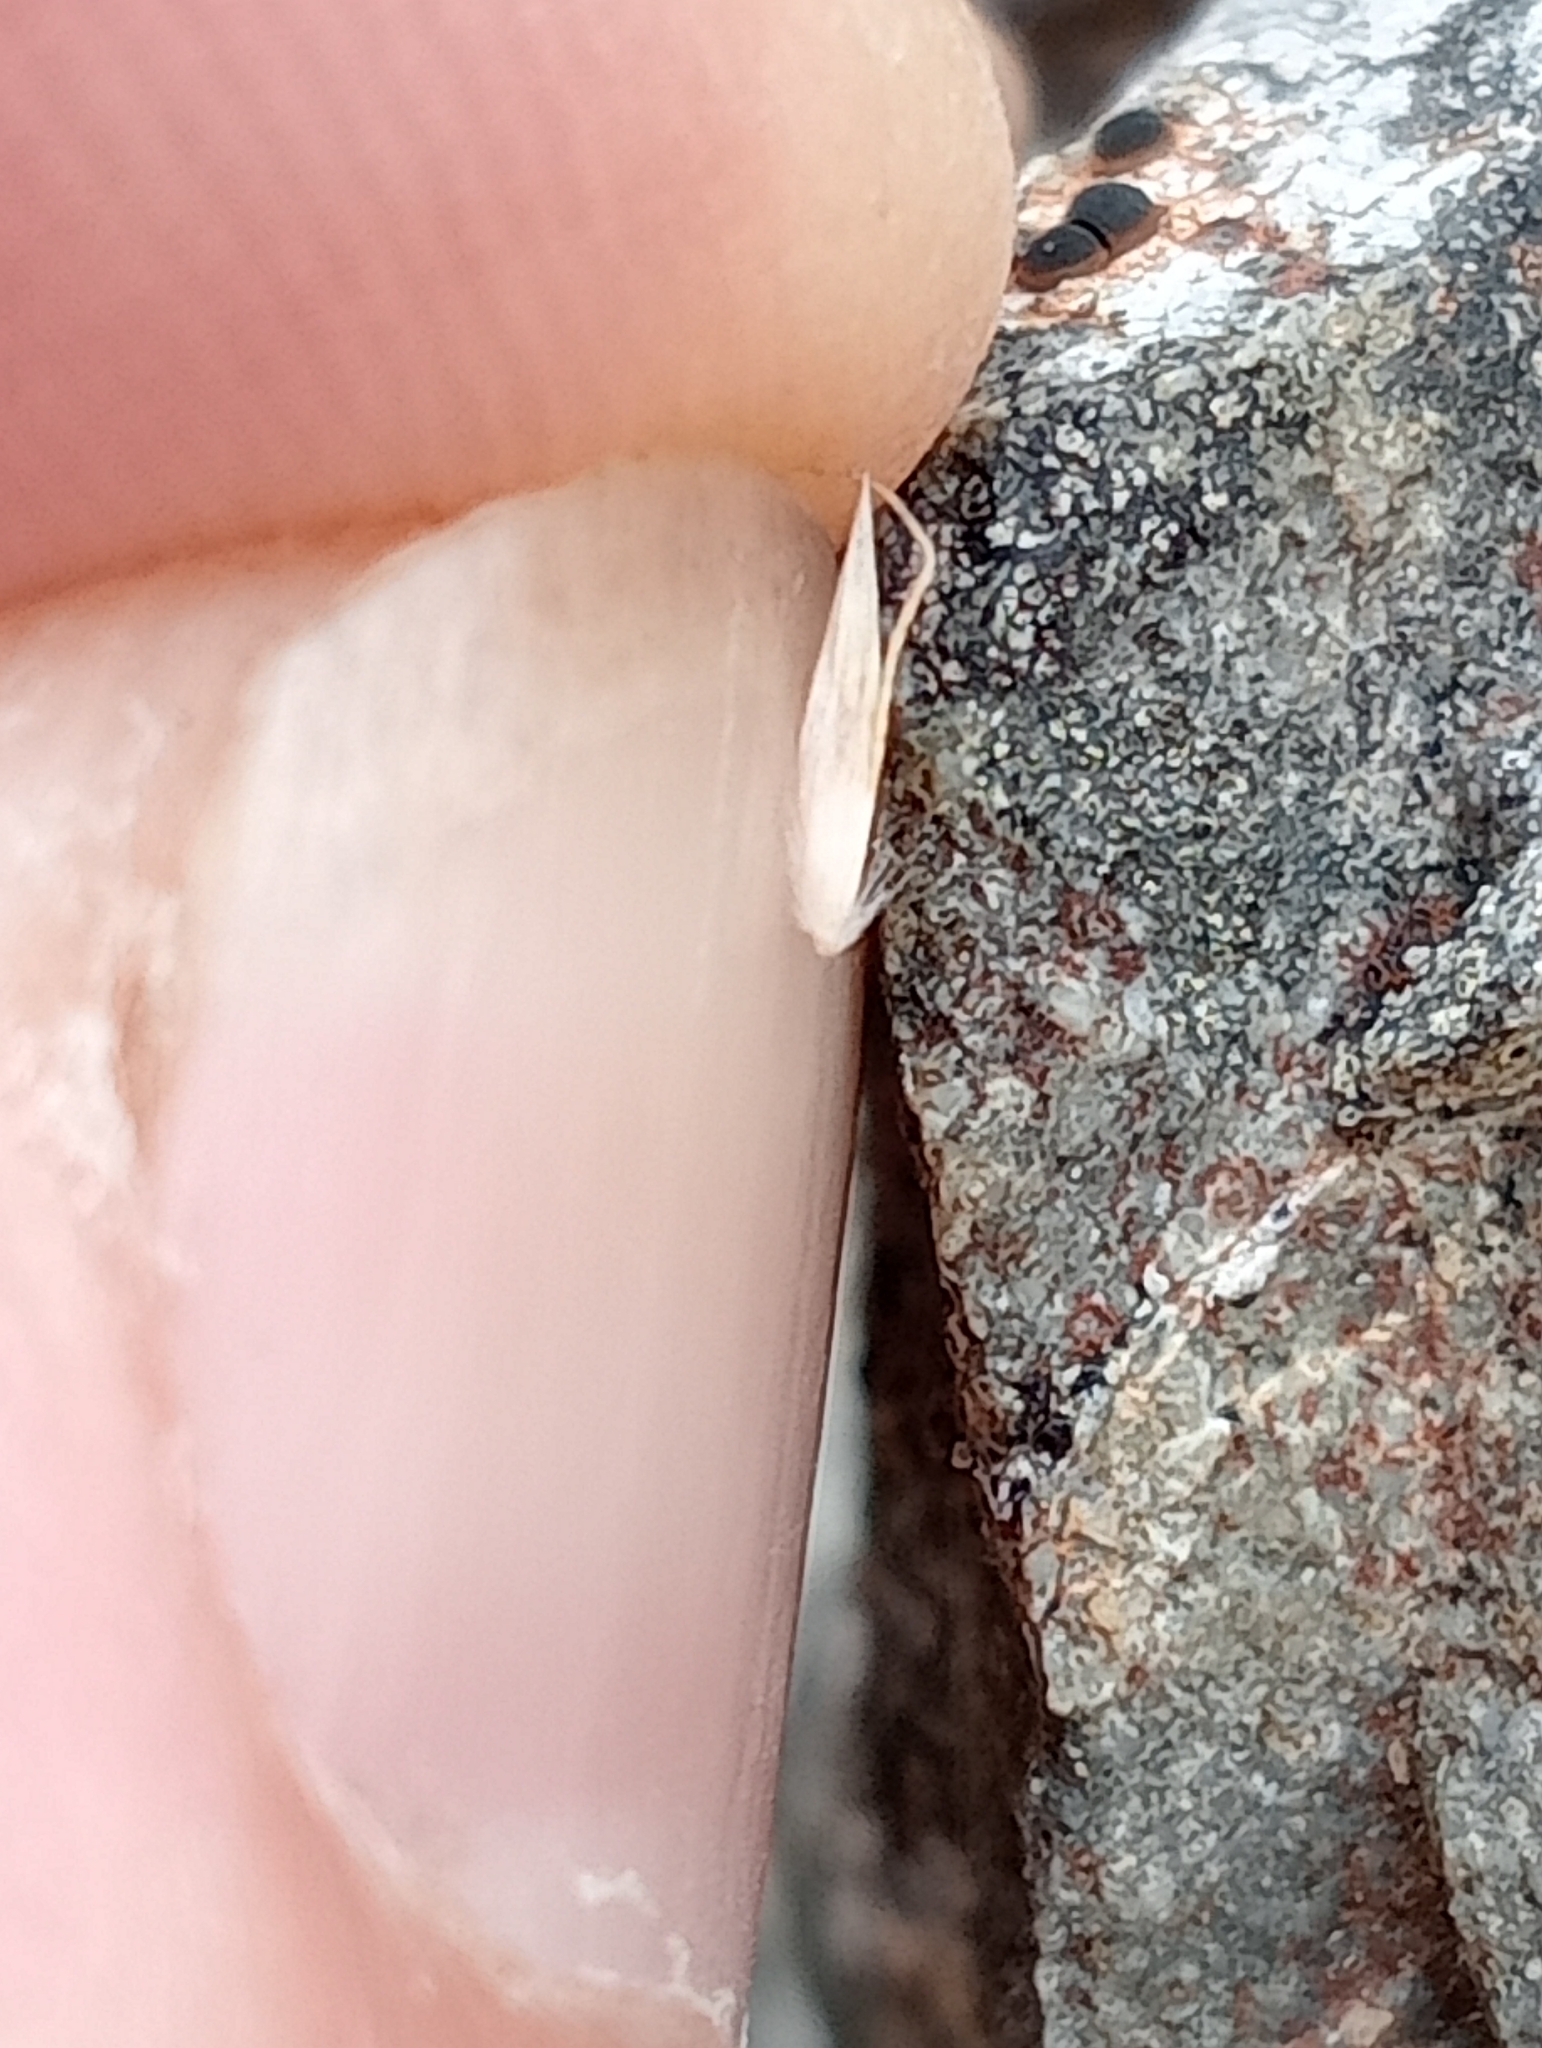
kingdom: Plantae
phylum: Tracheophyta
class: Liliopsida
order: Poales
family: Poaceae
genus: Calamagrostis
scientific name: Calamagrostis avenoides
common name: Mountain oat grass
